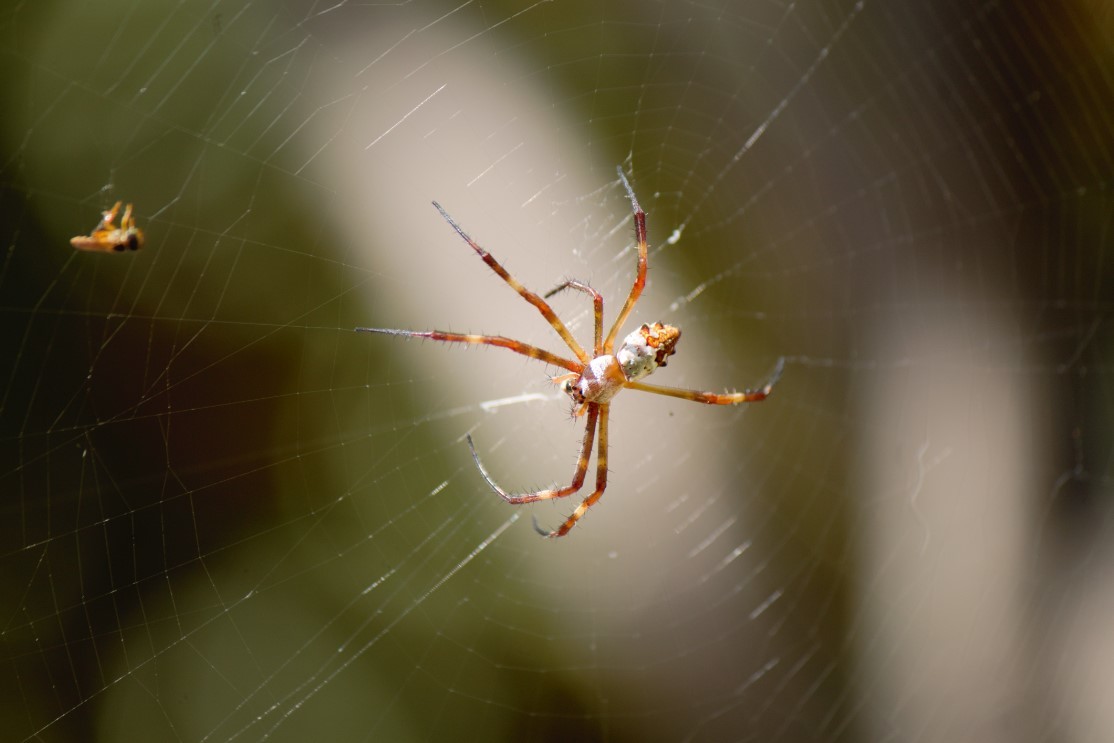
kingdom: Animalia
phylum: Arthropoda
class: Arachnida
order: Araneae
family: Araneidae
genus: Argiope
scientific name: Argiope argentata
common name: Orb weavers
